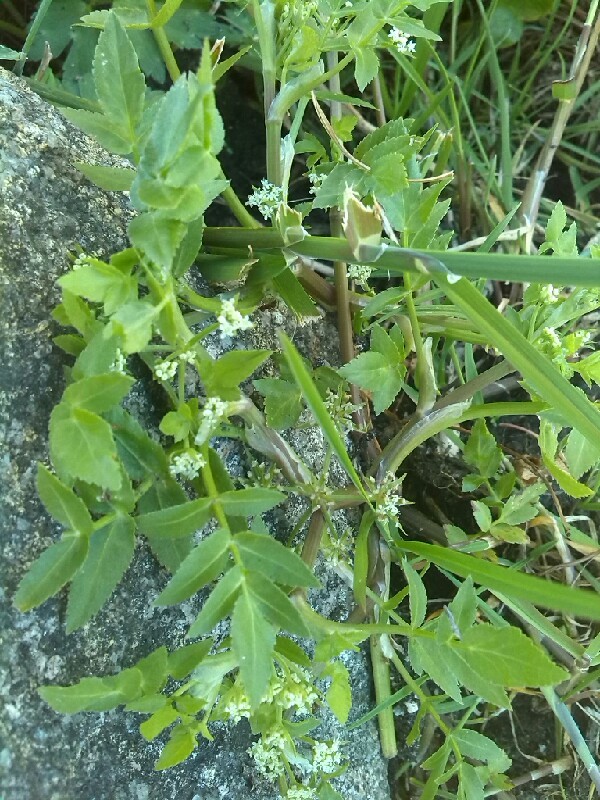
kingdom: Plantae
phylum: Tracheophyta
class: Magnoliopsida
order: Apiales
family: Apiaceae
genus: Helosciadium
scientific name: Helosciadium nodiflorum
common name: Fool's-watercress
